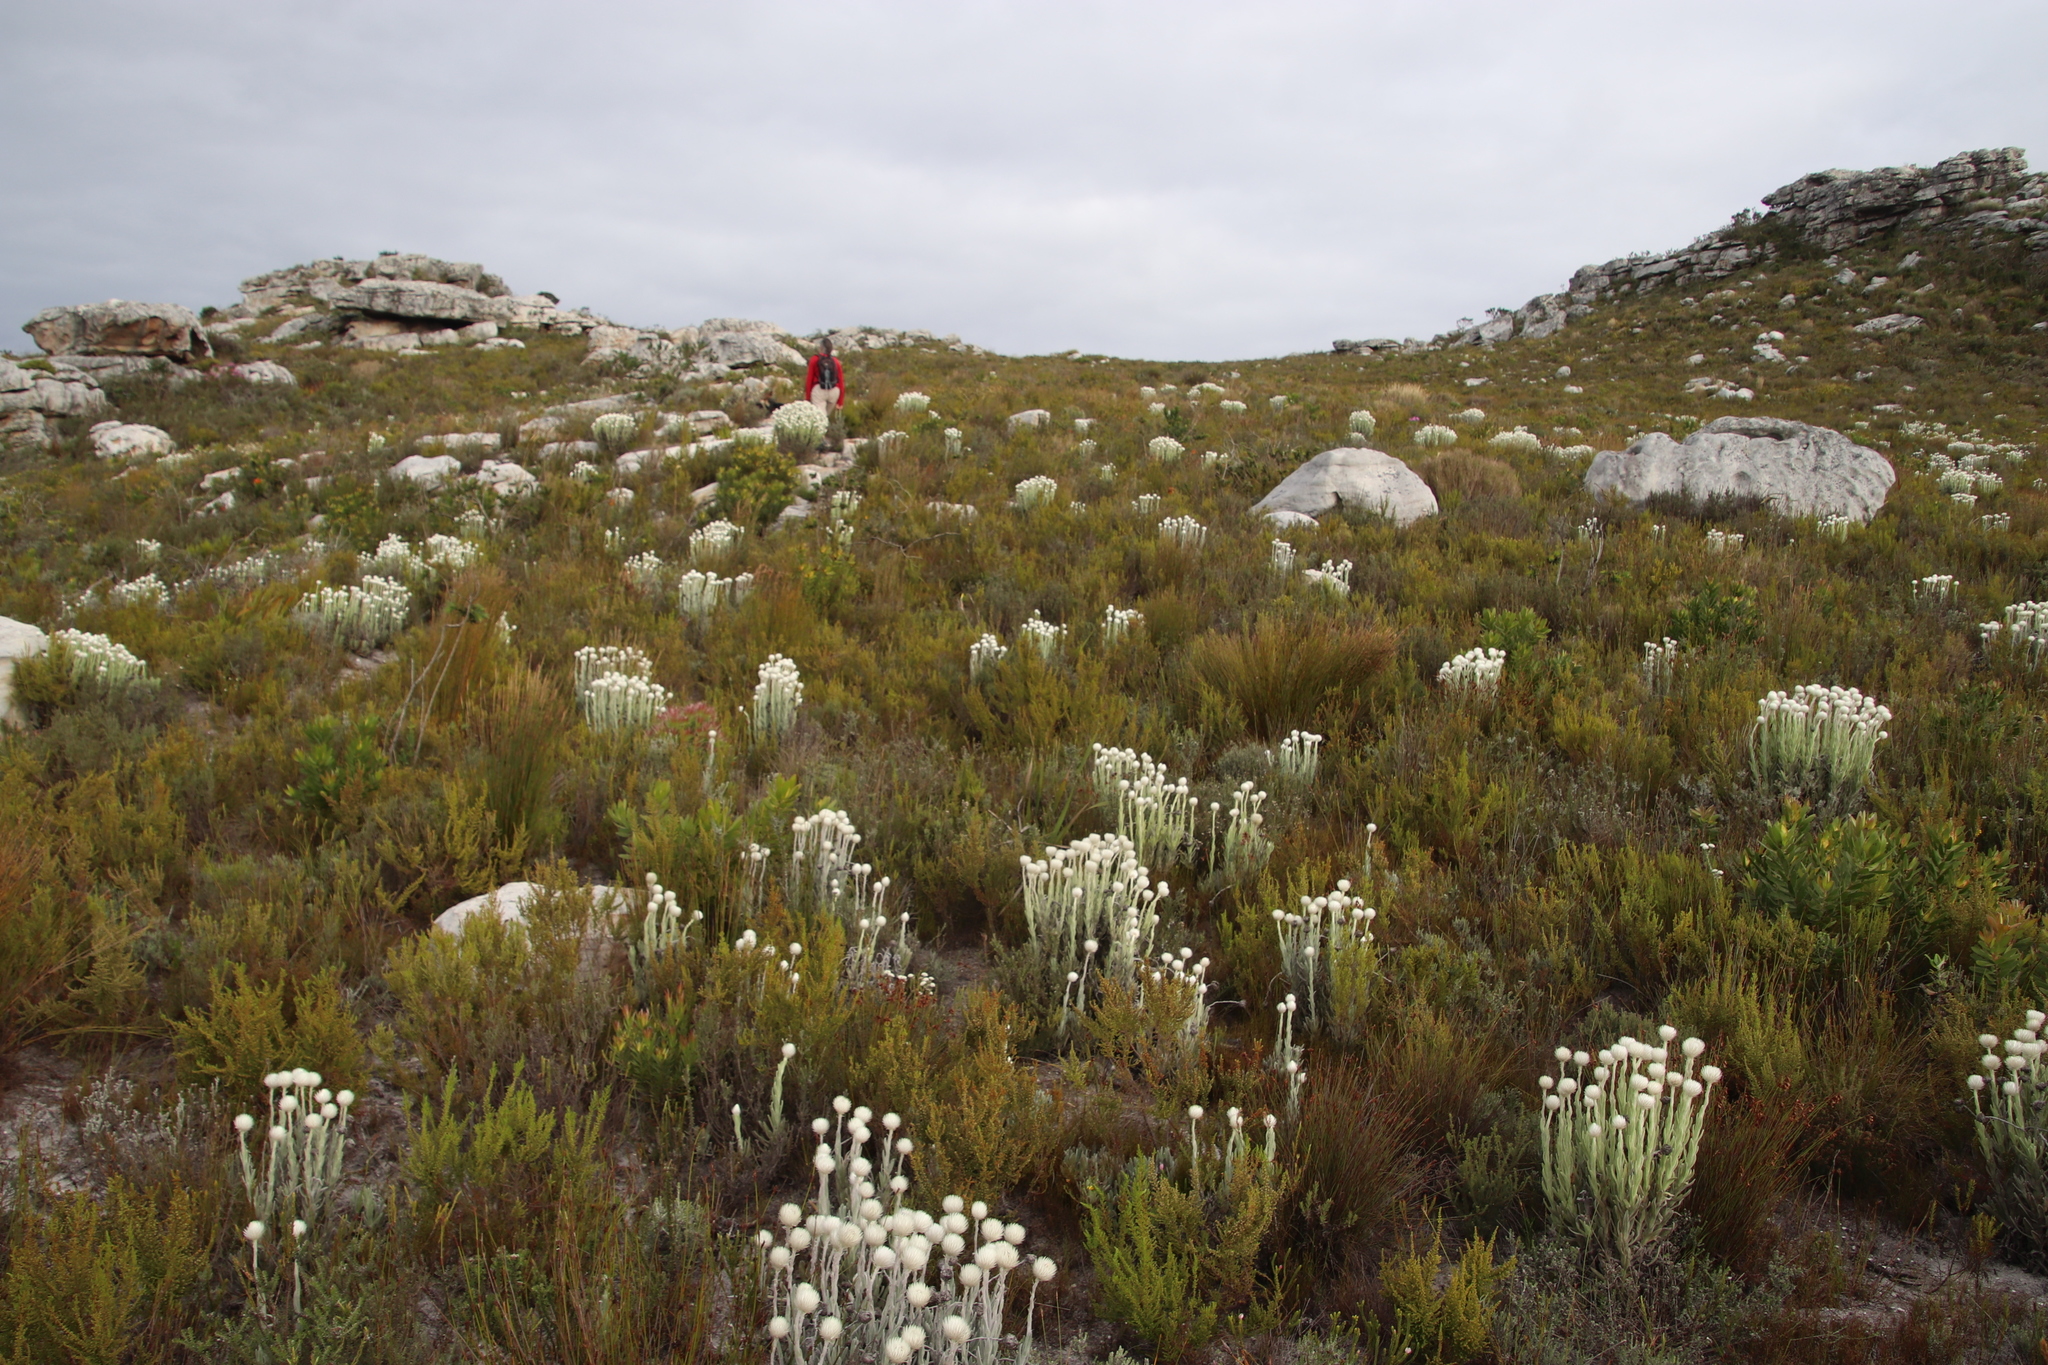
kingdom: Plantae
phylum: Tracheophyta
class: Magnoliopsida
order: Asterales
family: Asteraceae
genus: Syncarpha
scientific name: Syncarpha vestita
